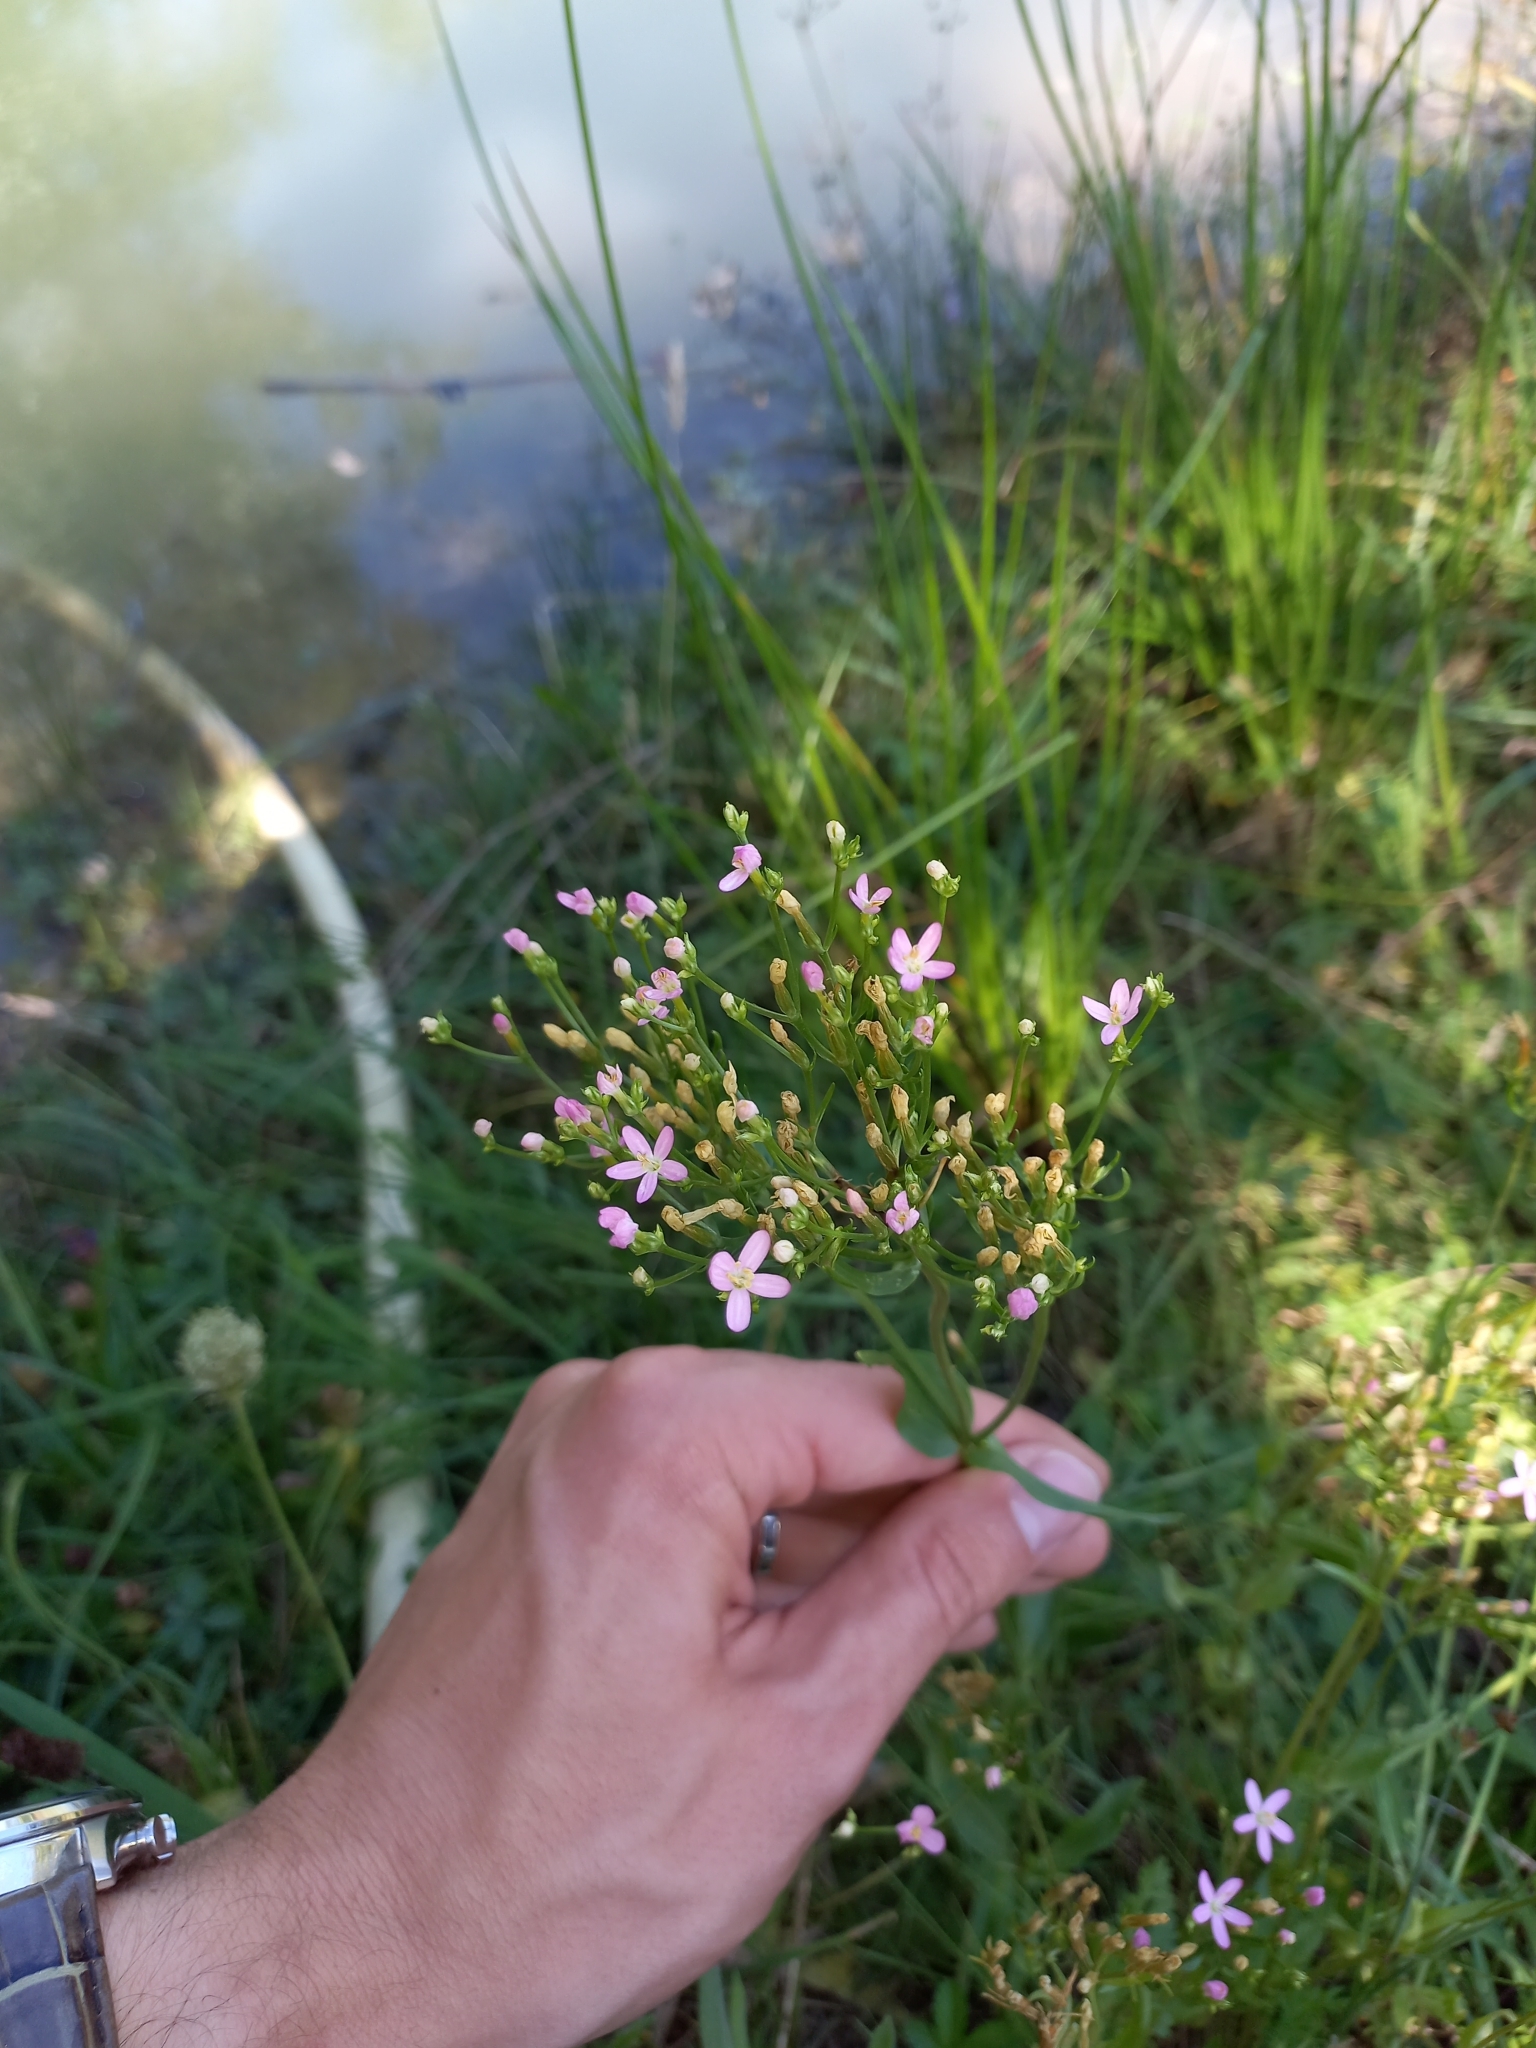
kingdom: Plantae
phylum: Tracheophyta
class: Magnoliopsida
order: Gentianales
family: Gentianaceae
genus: Centaurium
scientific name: Centaurium erythraea
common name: Common centaury
